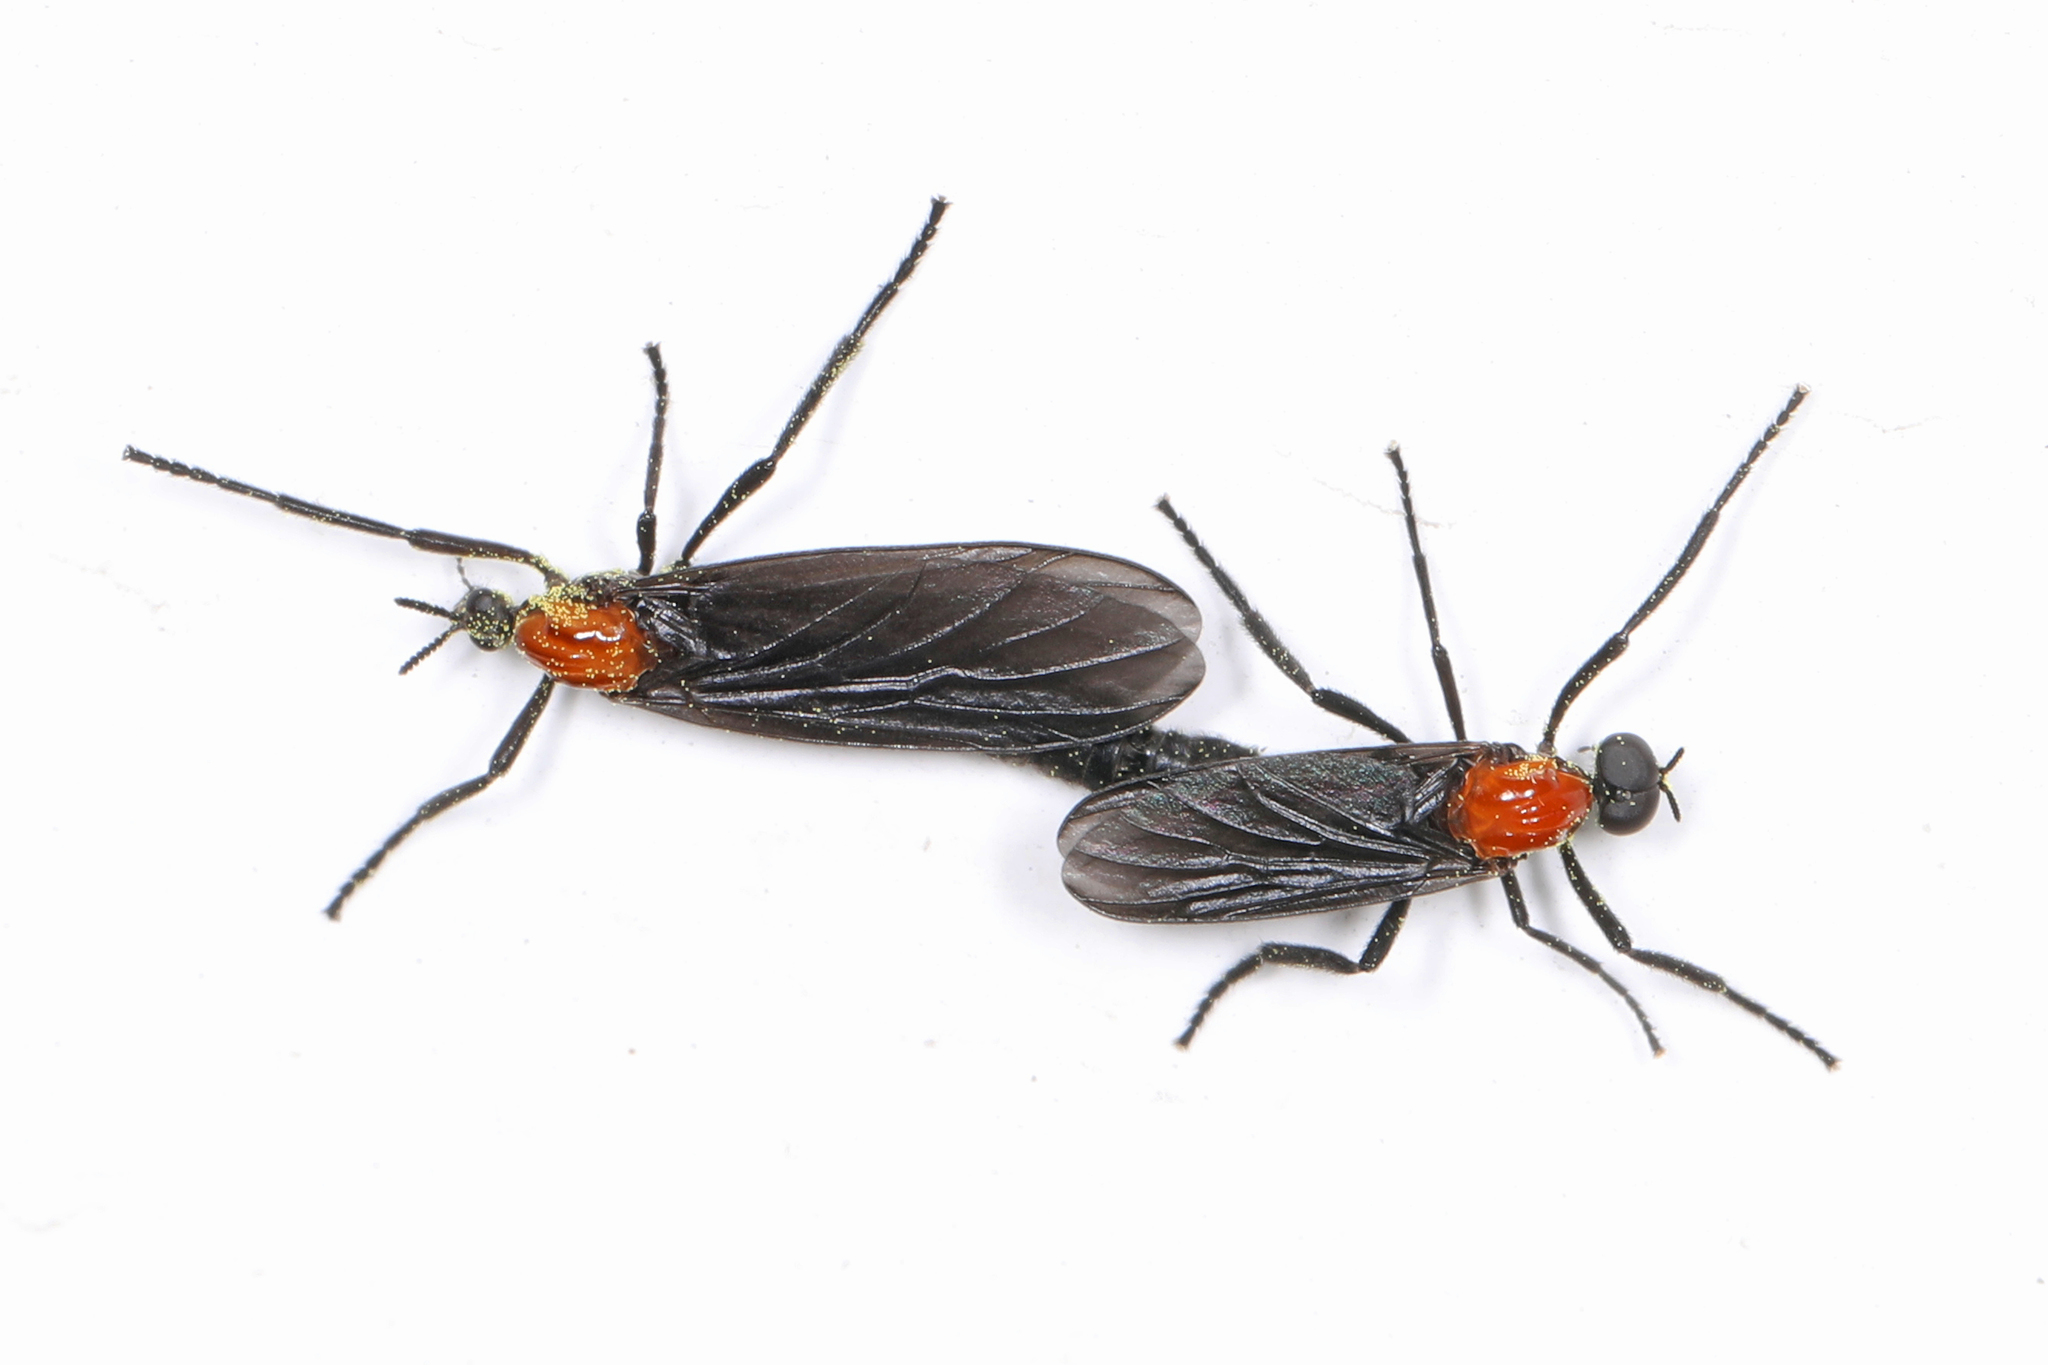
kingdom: Animalia
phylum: Arthropoda
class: Insecta
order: Diptera
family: Bibionidae
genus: Plecia
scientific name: Plecia nearctica
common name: March fly
